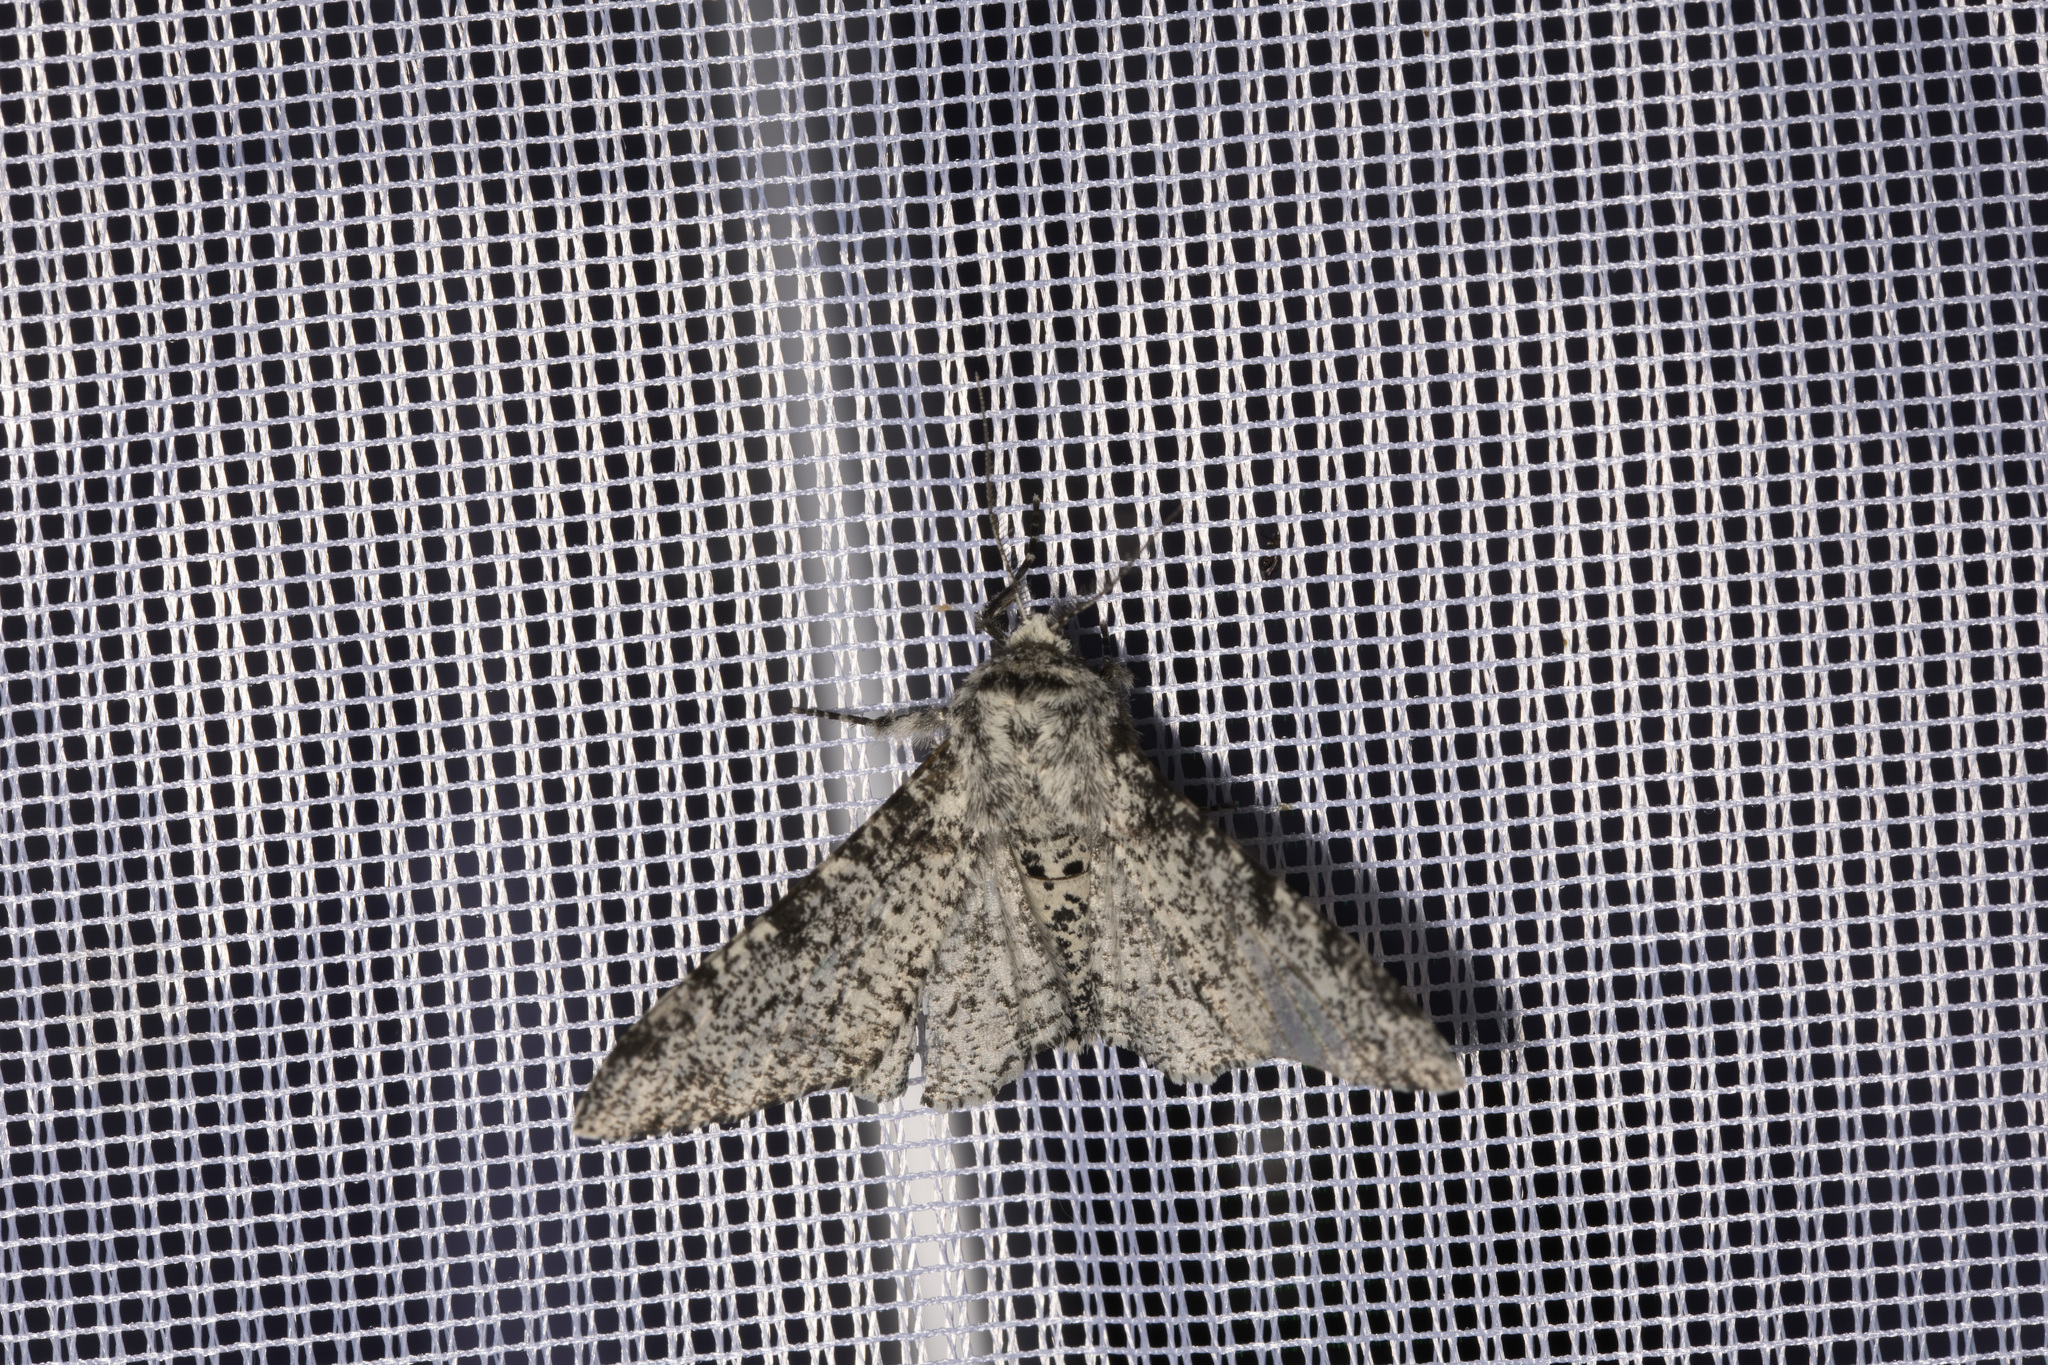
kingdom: Animalia
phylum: Arthropoda
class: Insecta
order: Lepidoptera
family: Geometridae
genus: Biston
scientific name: Biston betularia
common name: Peppered moth
